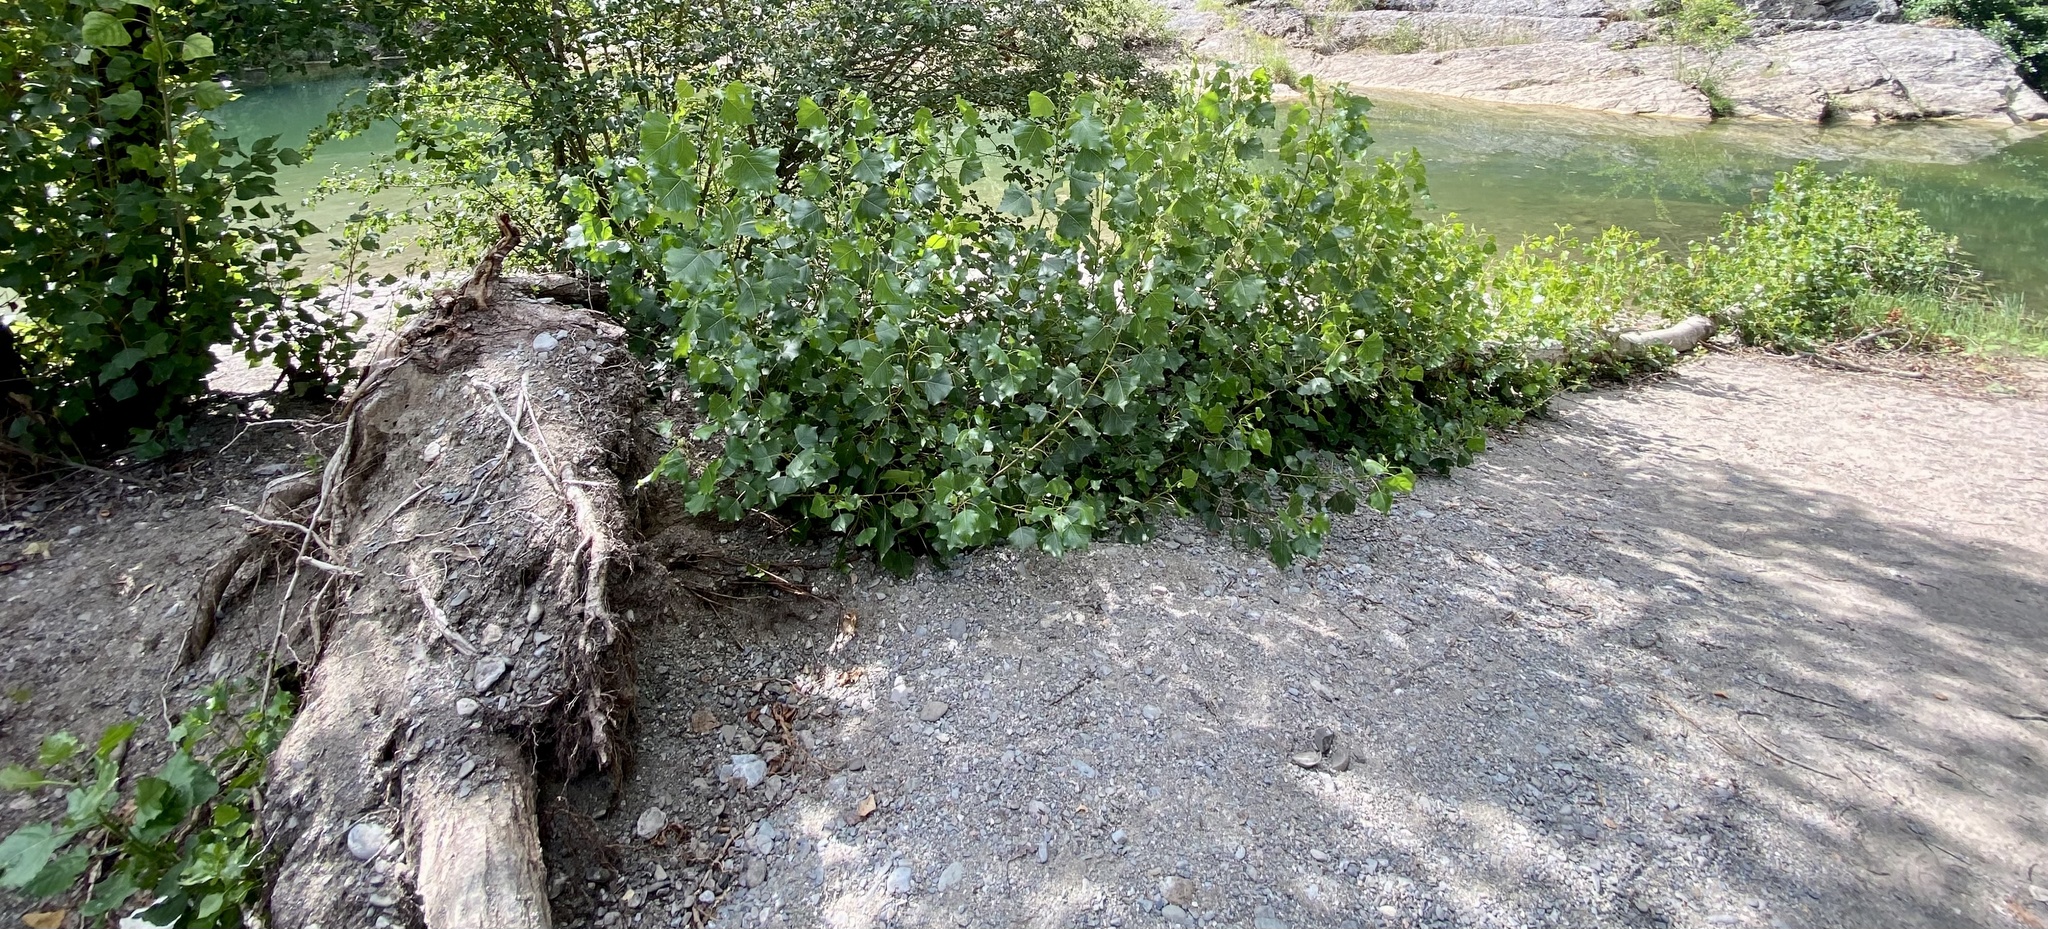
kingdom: Plantae
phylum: Tracheophyta
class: Magnoliopsida
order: Malpighiales
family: Salicaceae
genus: Populus
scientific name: Populus nigra
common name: Black poplar
